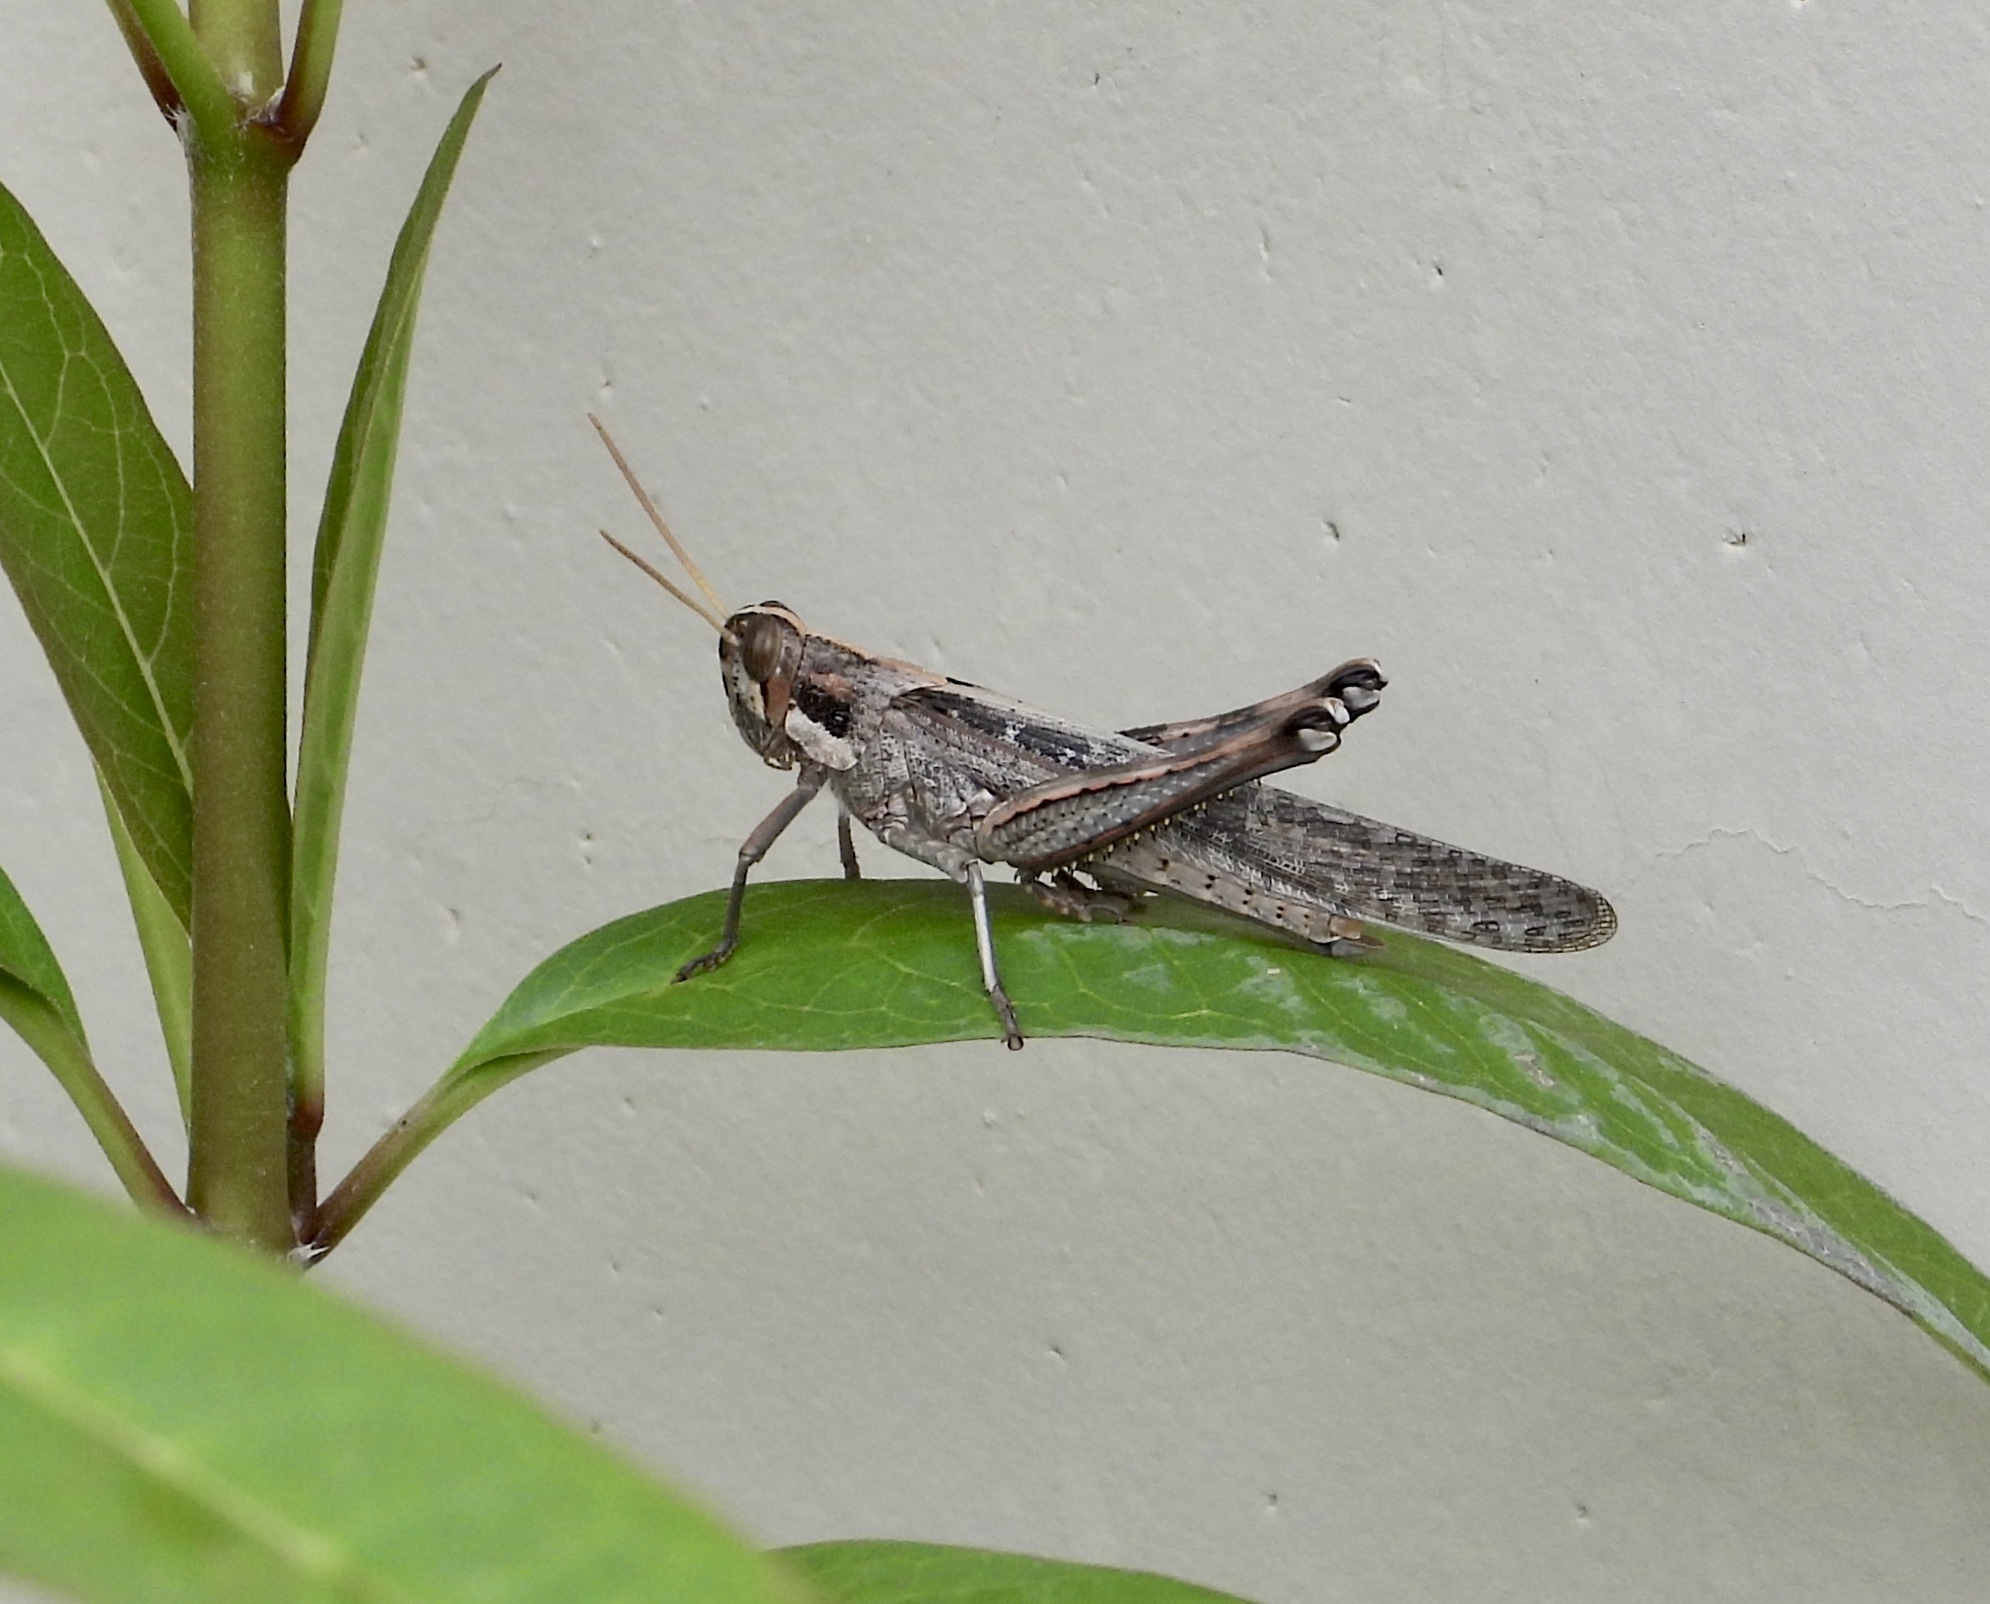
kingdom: Animalia
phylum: Arthropoda
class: Insecta
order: Orthoptera
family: Acrididae
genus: Schistocerca
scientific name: Schistocerca nitens
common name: Vagrant grasshopper
